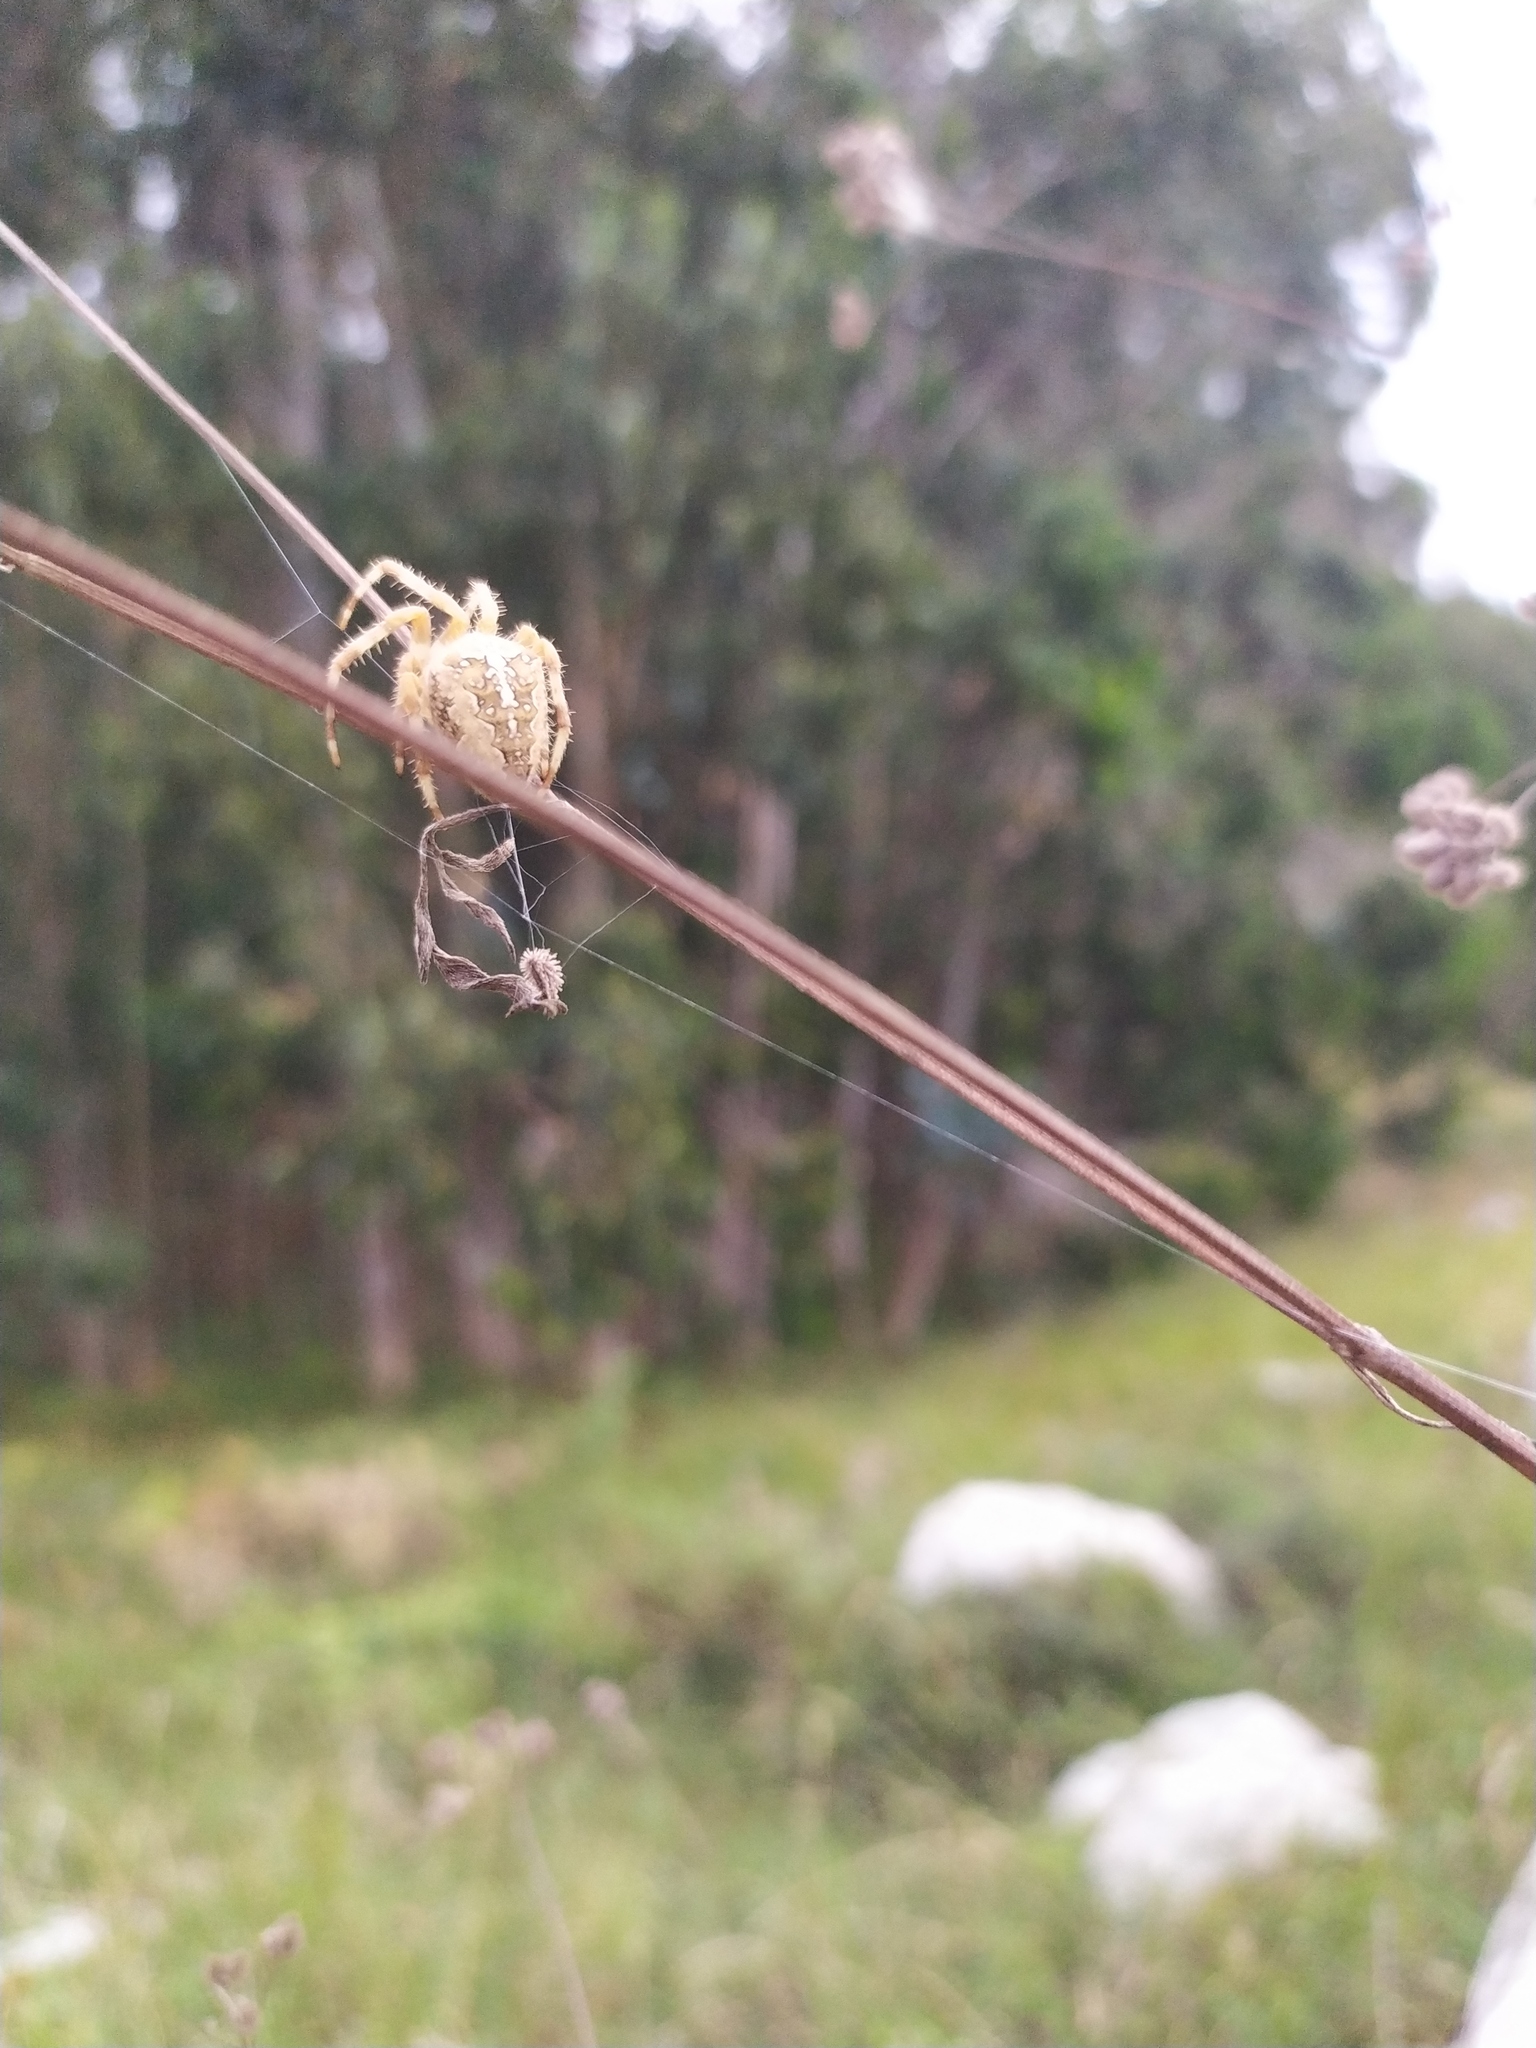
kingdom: Animalia
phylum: Arthropoda
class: Arachnida
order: Araneae
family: Araneidae
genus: Araneus
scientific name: Araneus diadematus
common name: Cross orbweaver
